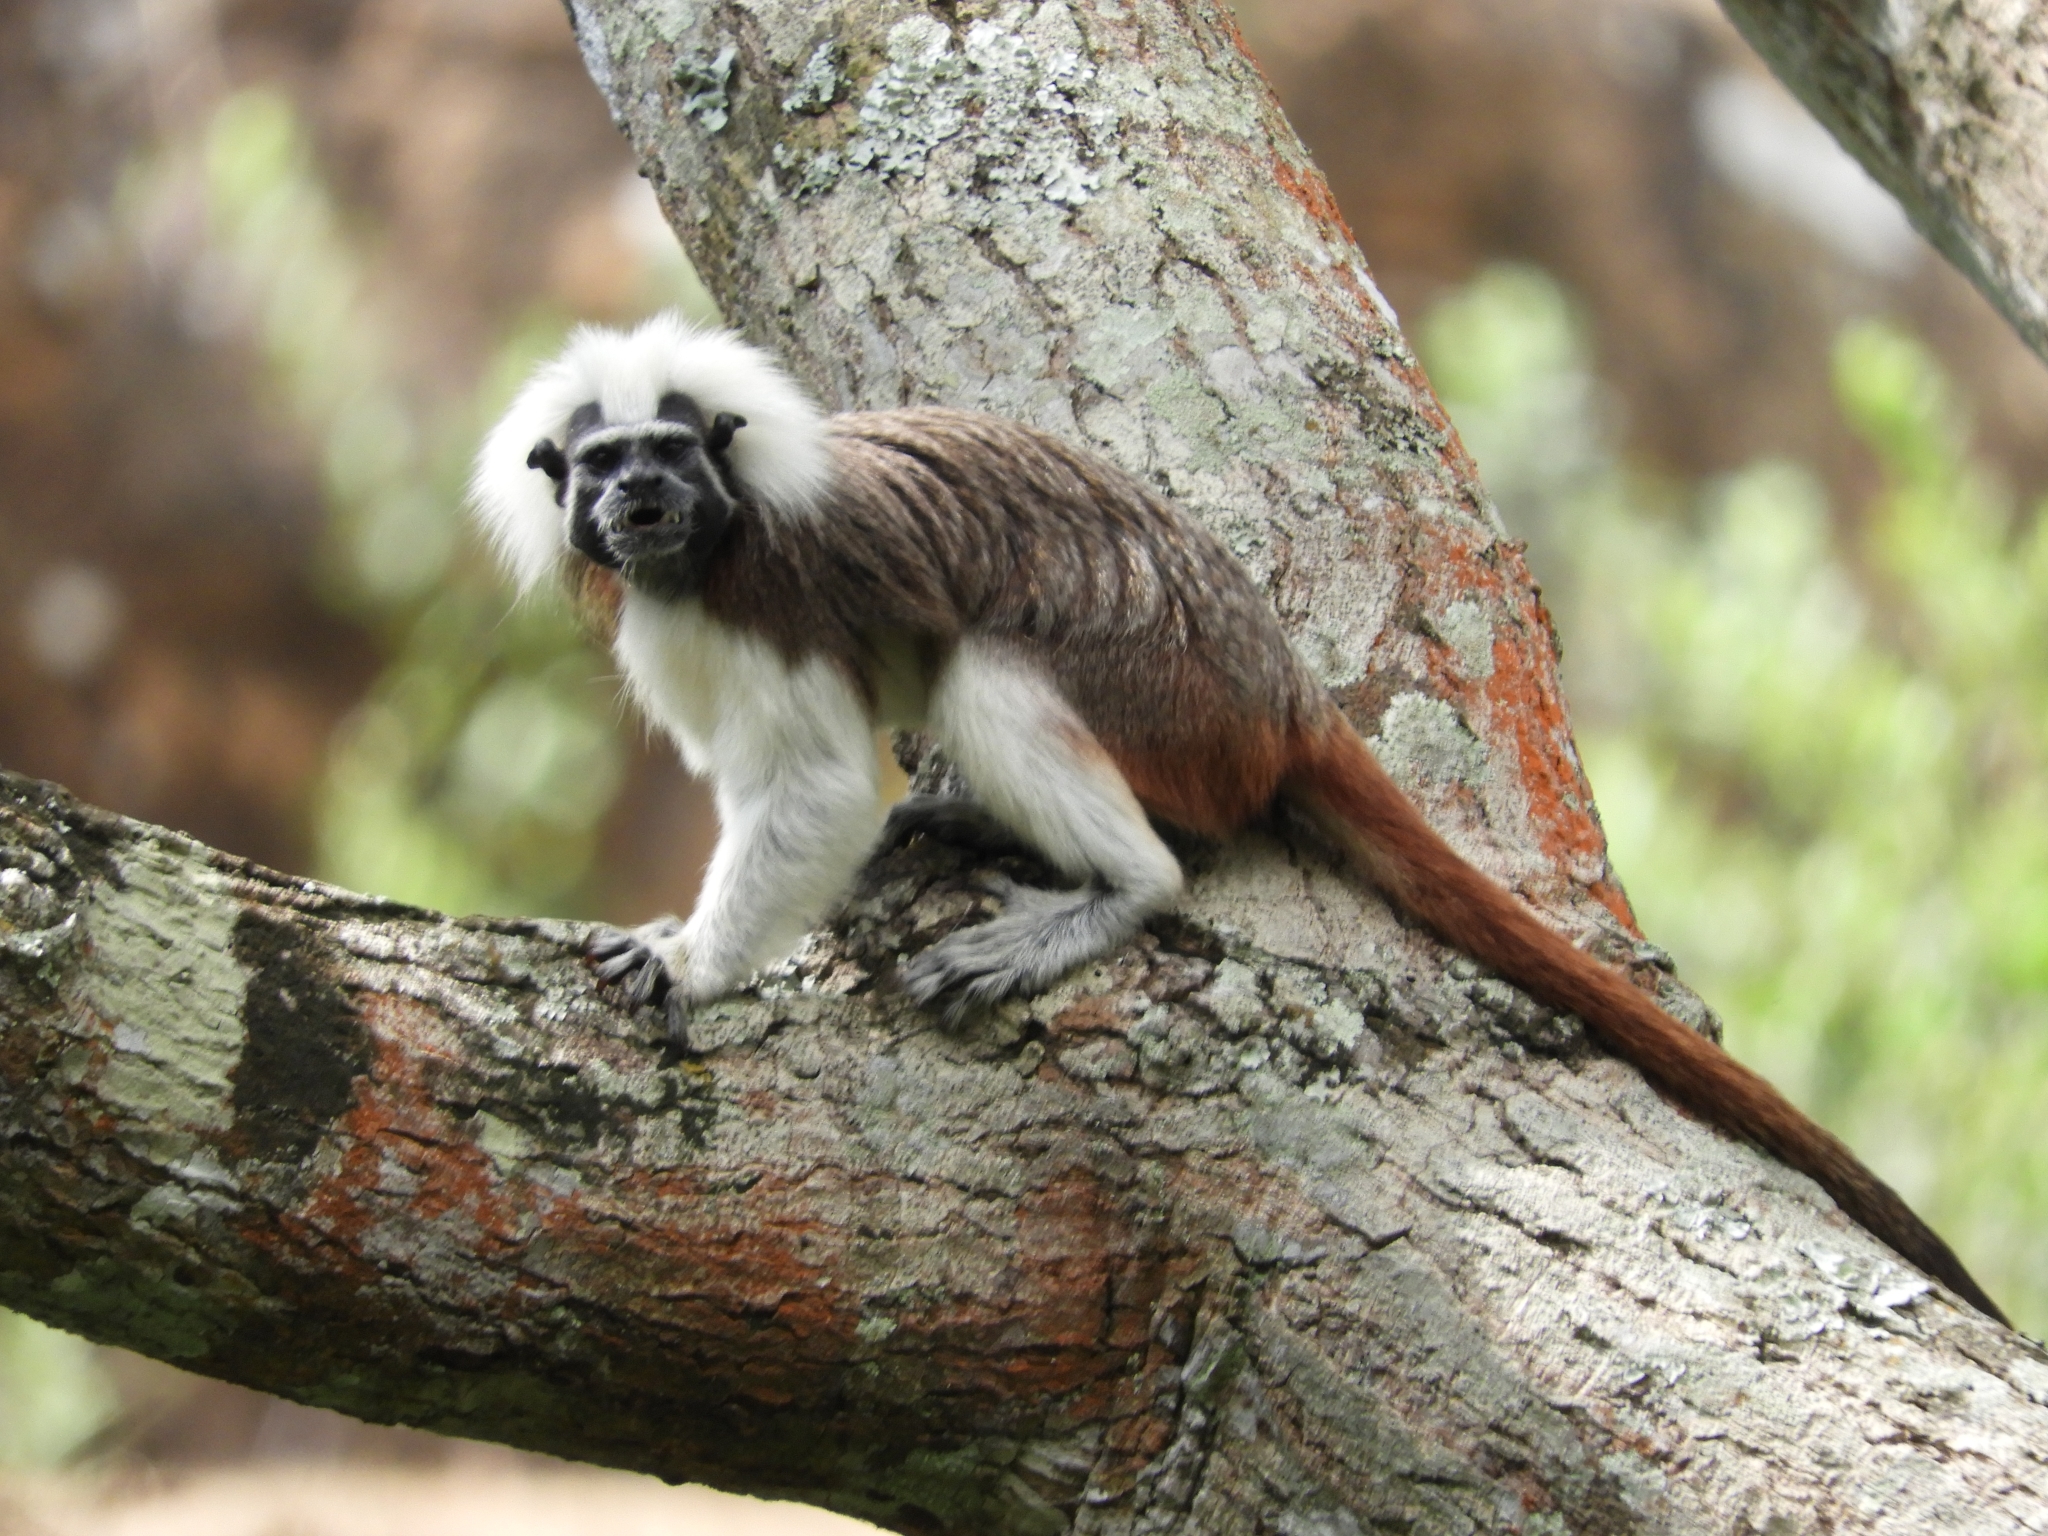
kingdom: Animalia
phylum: Chordata
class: Mammalia
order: Primates
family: Callitrichidae
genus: Saguinus
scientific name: Saguinus oedipus
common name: Cottontop tamarin
